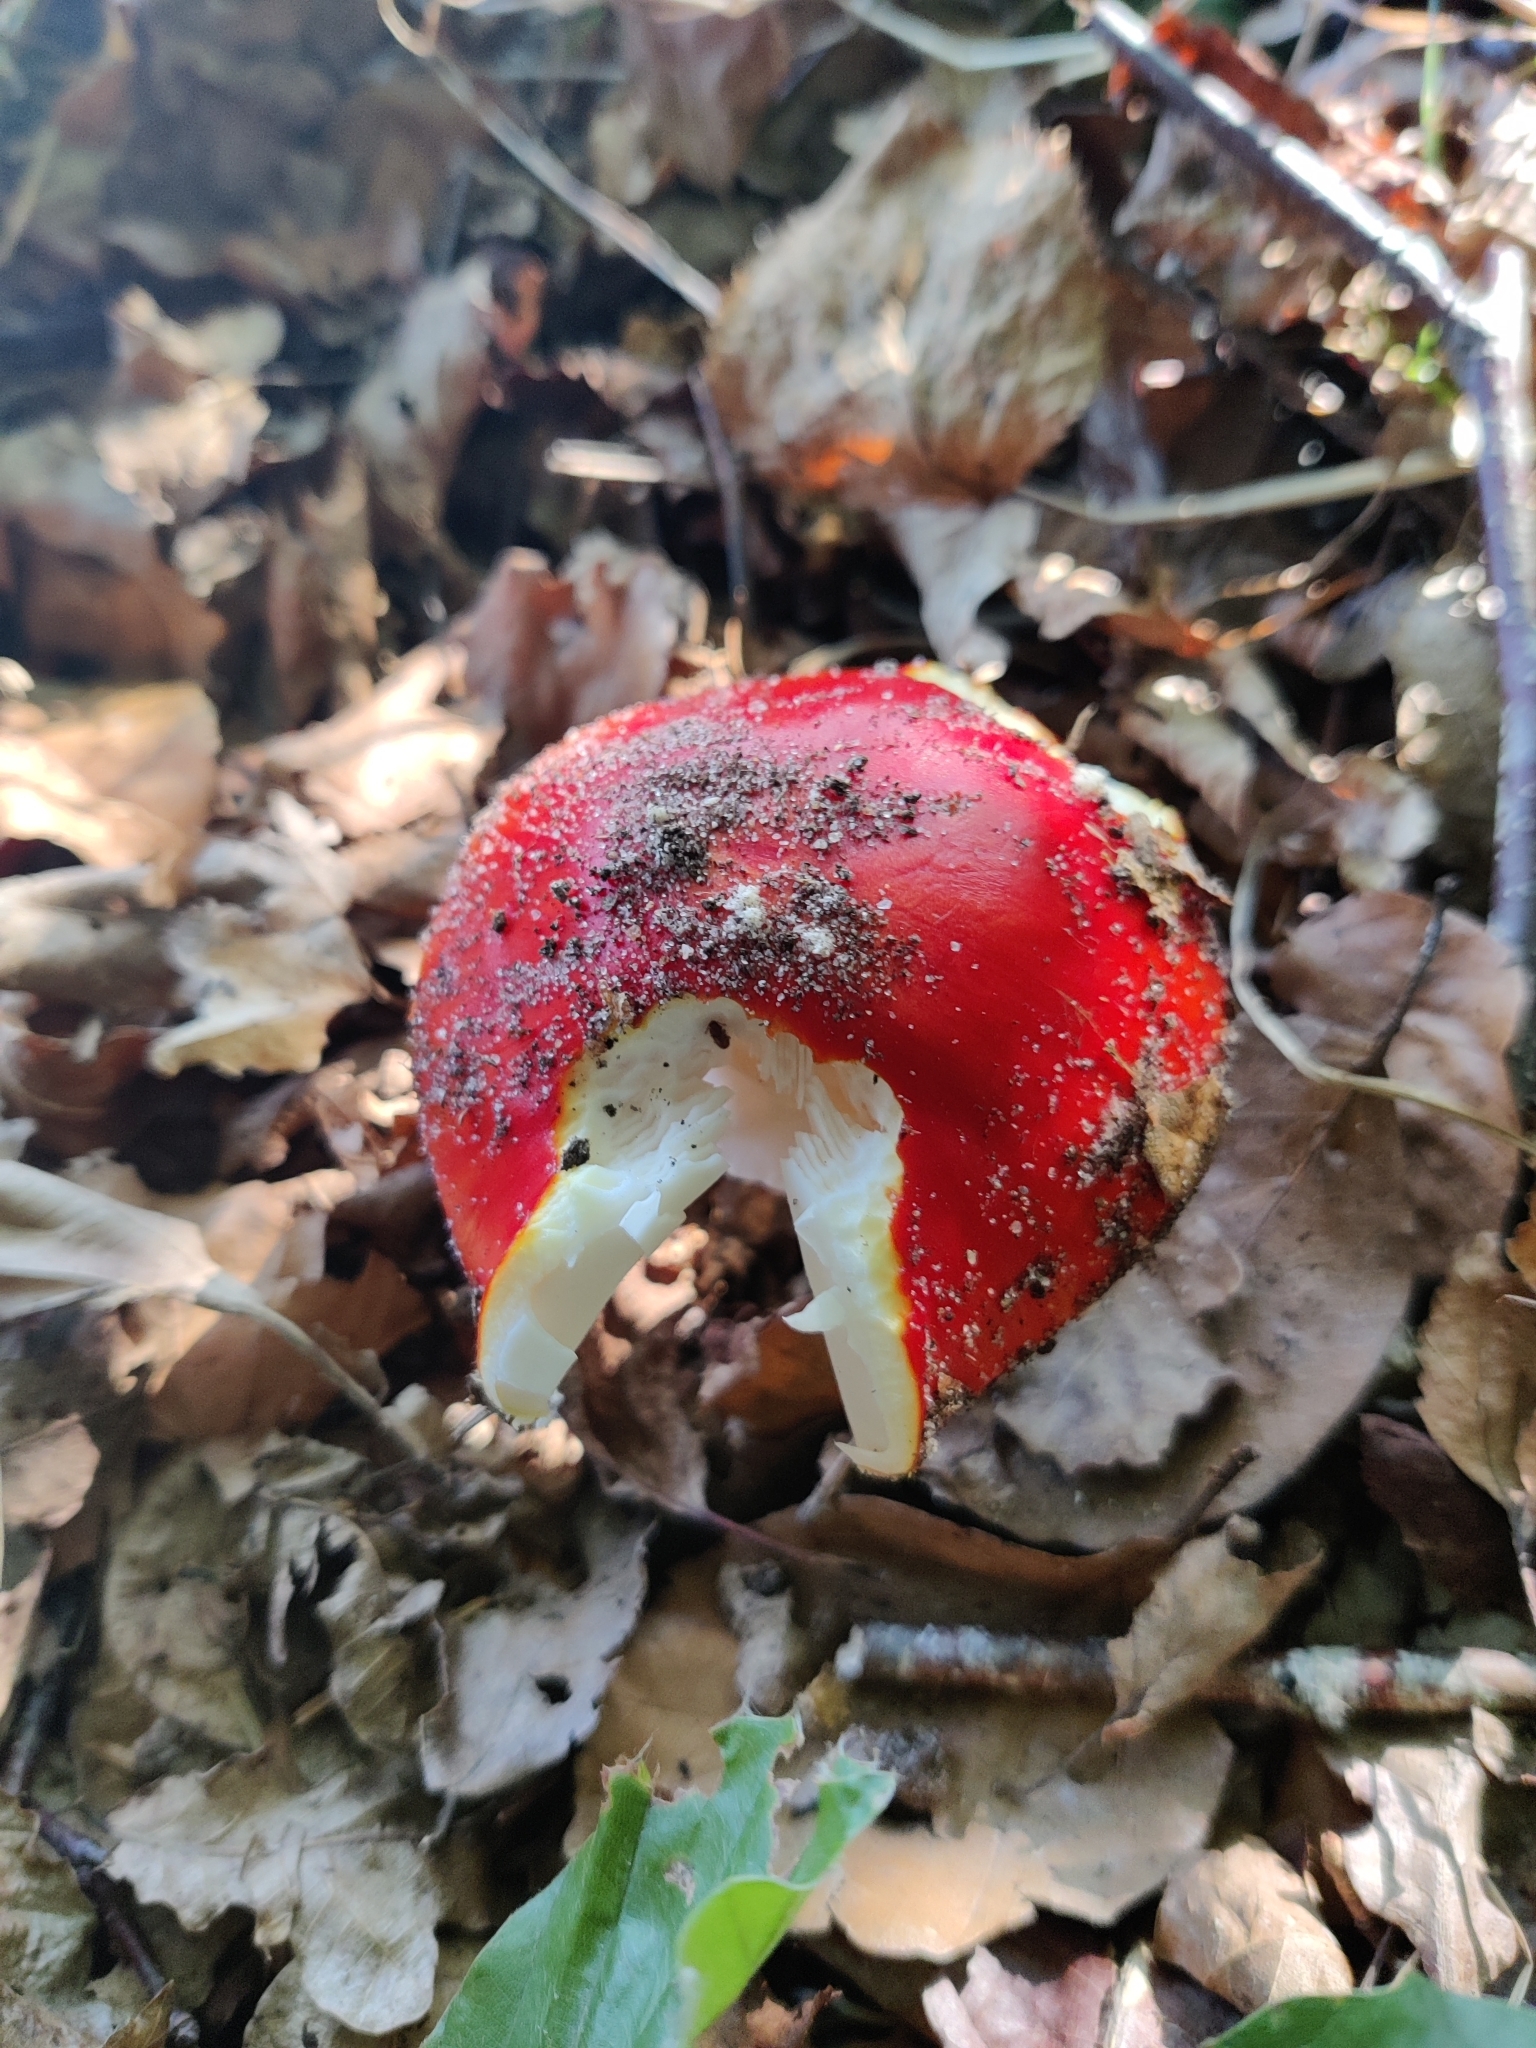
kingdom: Fungi
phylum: Basidiomycota
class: Agaricomycetes
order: Agaricales
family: Amanitaceae
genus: Amanita
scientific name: Amanita muscaria
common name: Fly agaric
